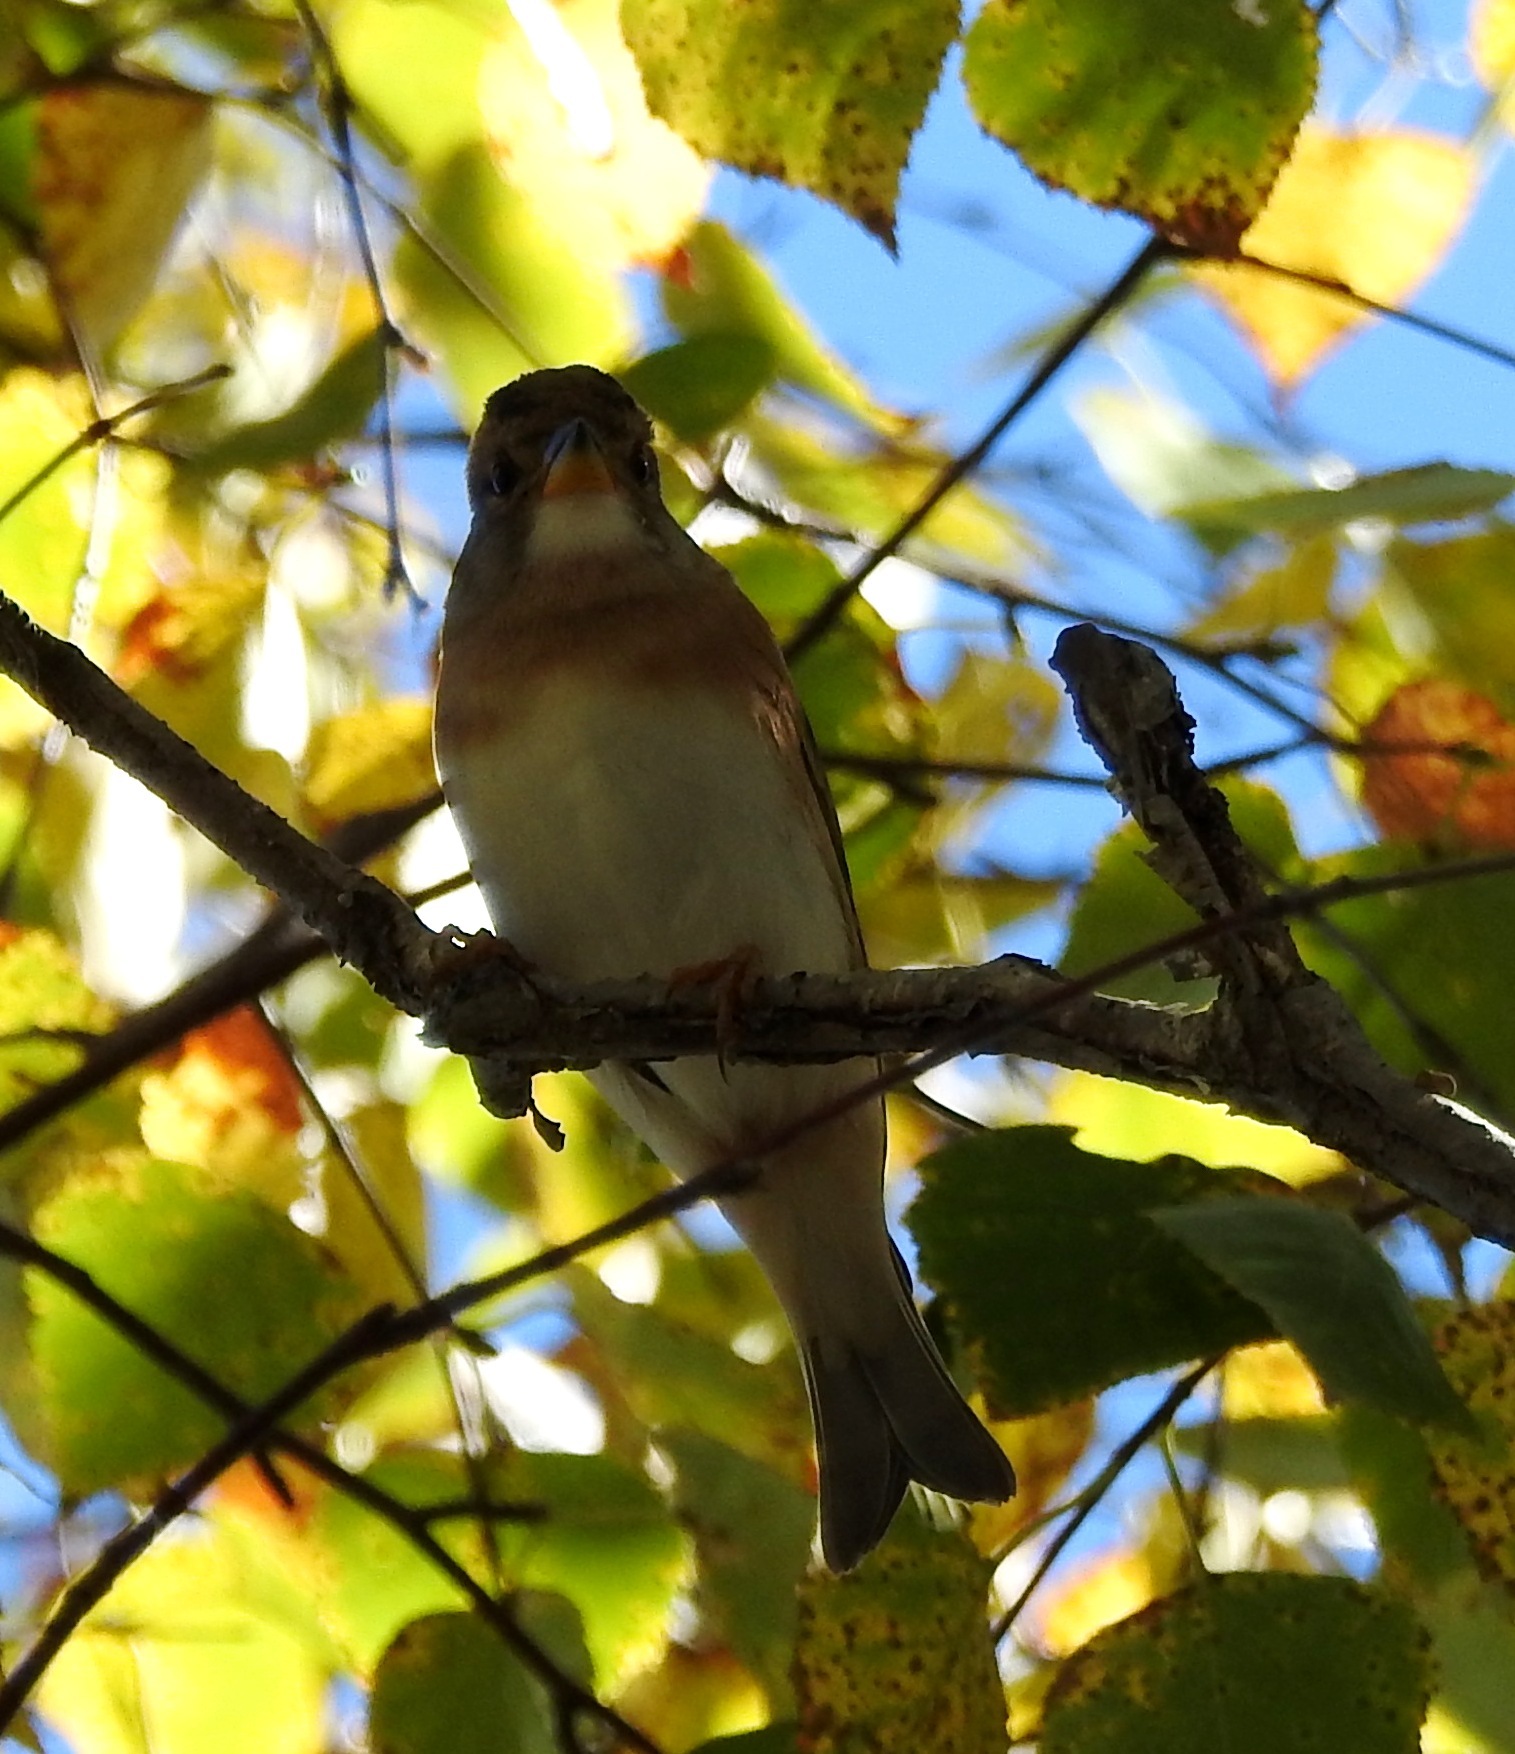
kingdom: Animalia
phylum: Chordata
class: Aves
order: Passeriformes
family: Fringillidae
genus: Fringilla
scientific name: Fringilla montifringilla
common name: Brambling
